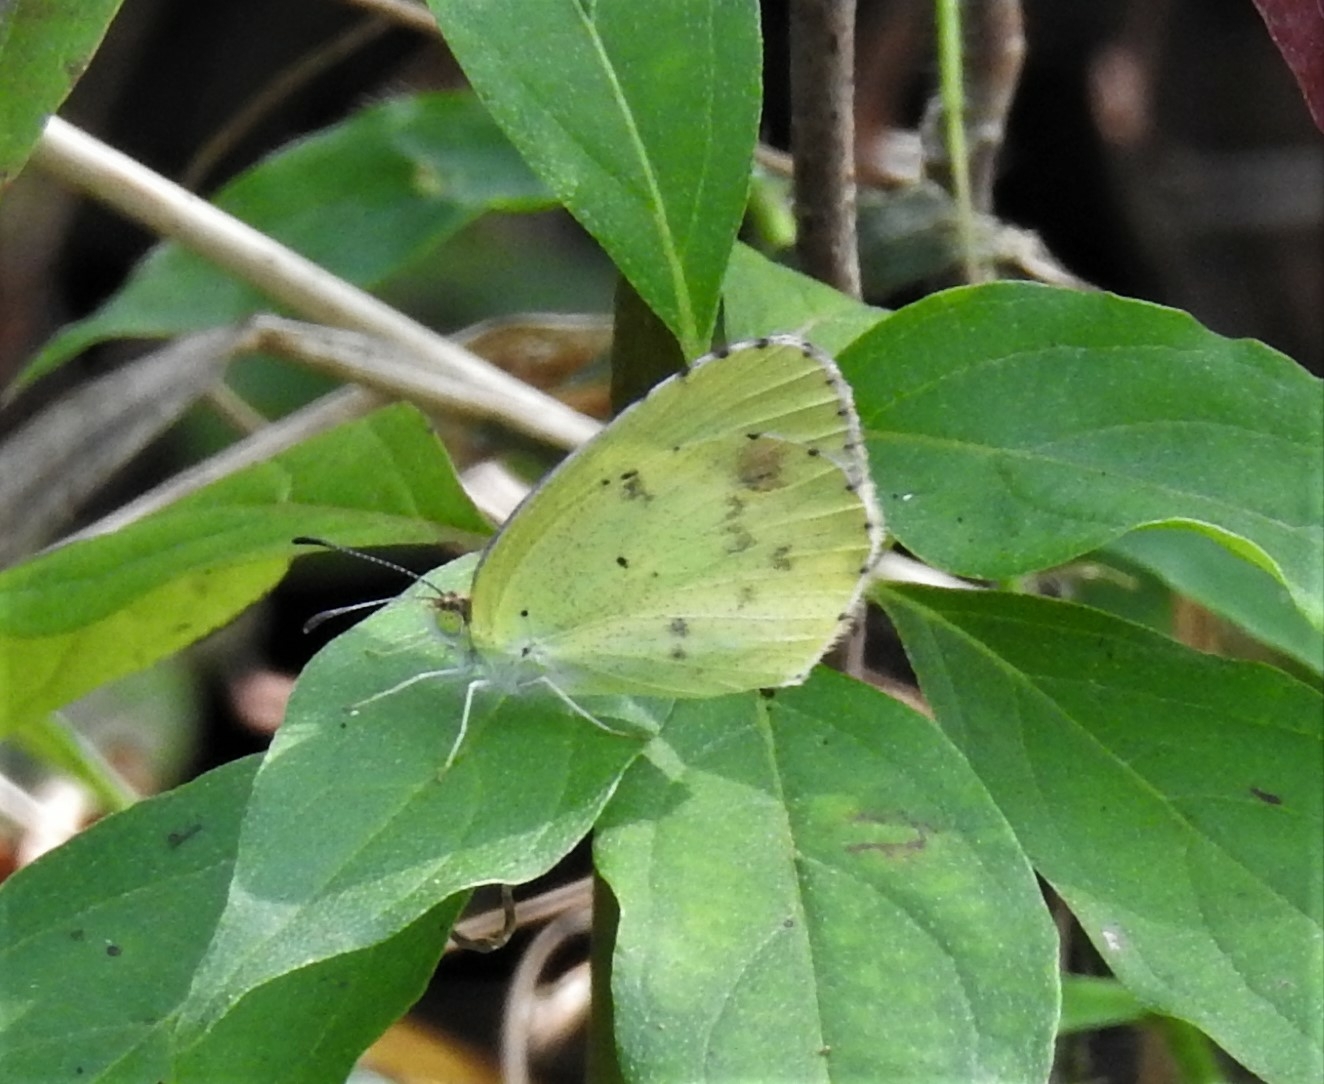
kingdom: Animalia
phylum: Arthropoda
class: Insecta
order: Lepidoptera
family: Pieridae
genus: Pyrisitia
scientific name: Pyrisitia lisa
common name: Little yellow
